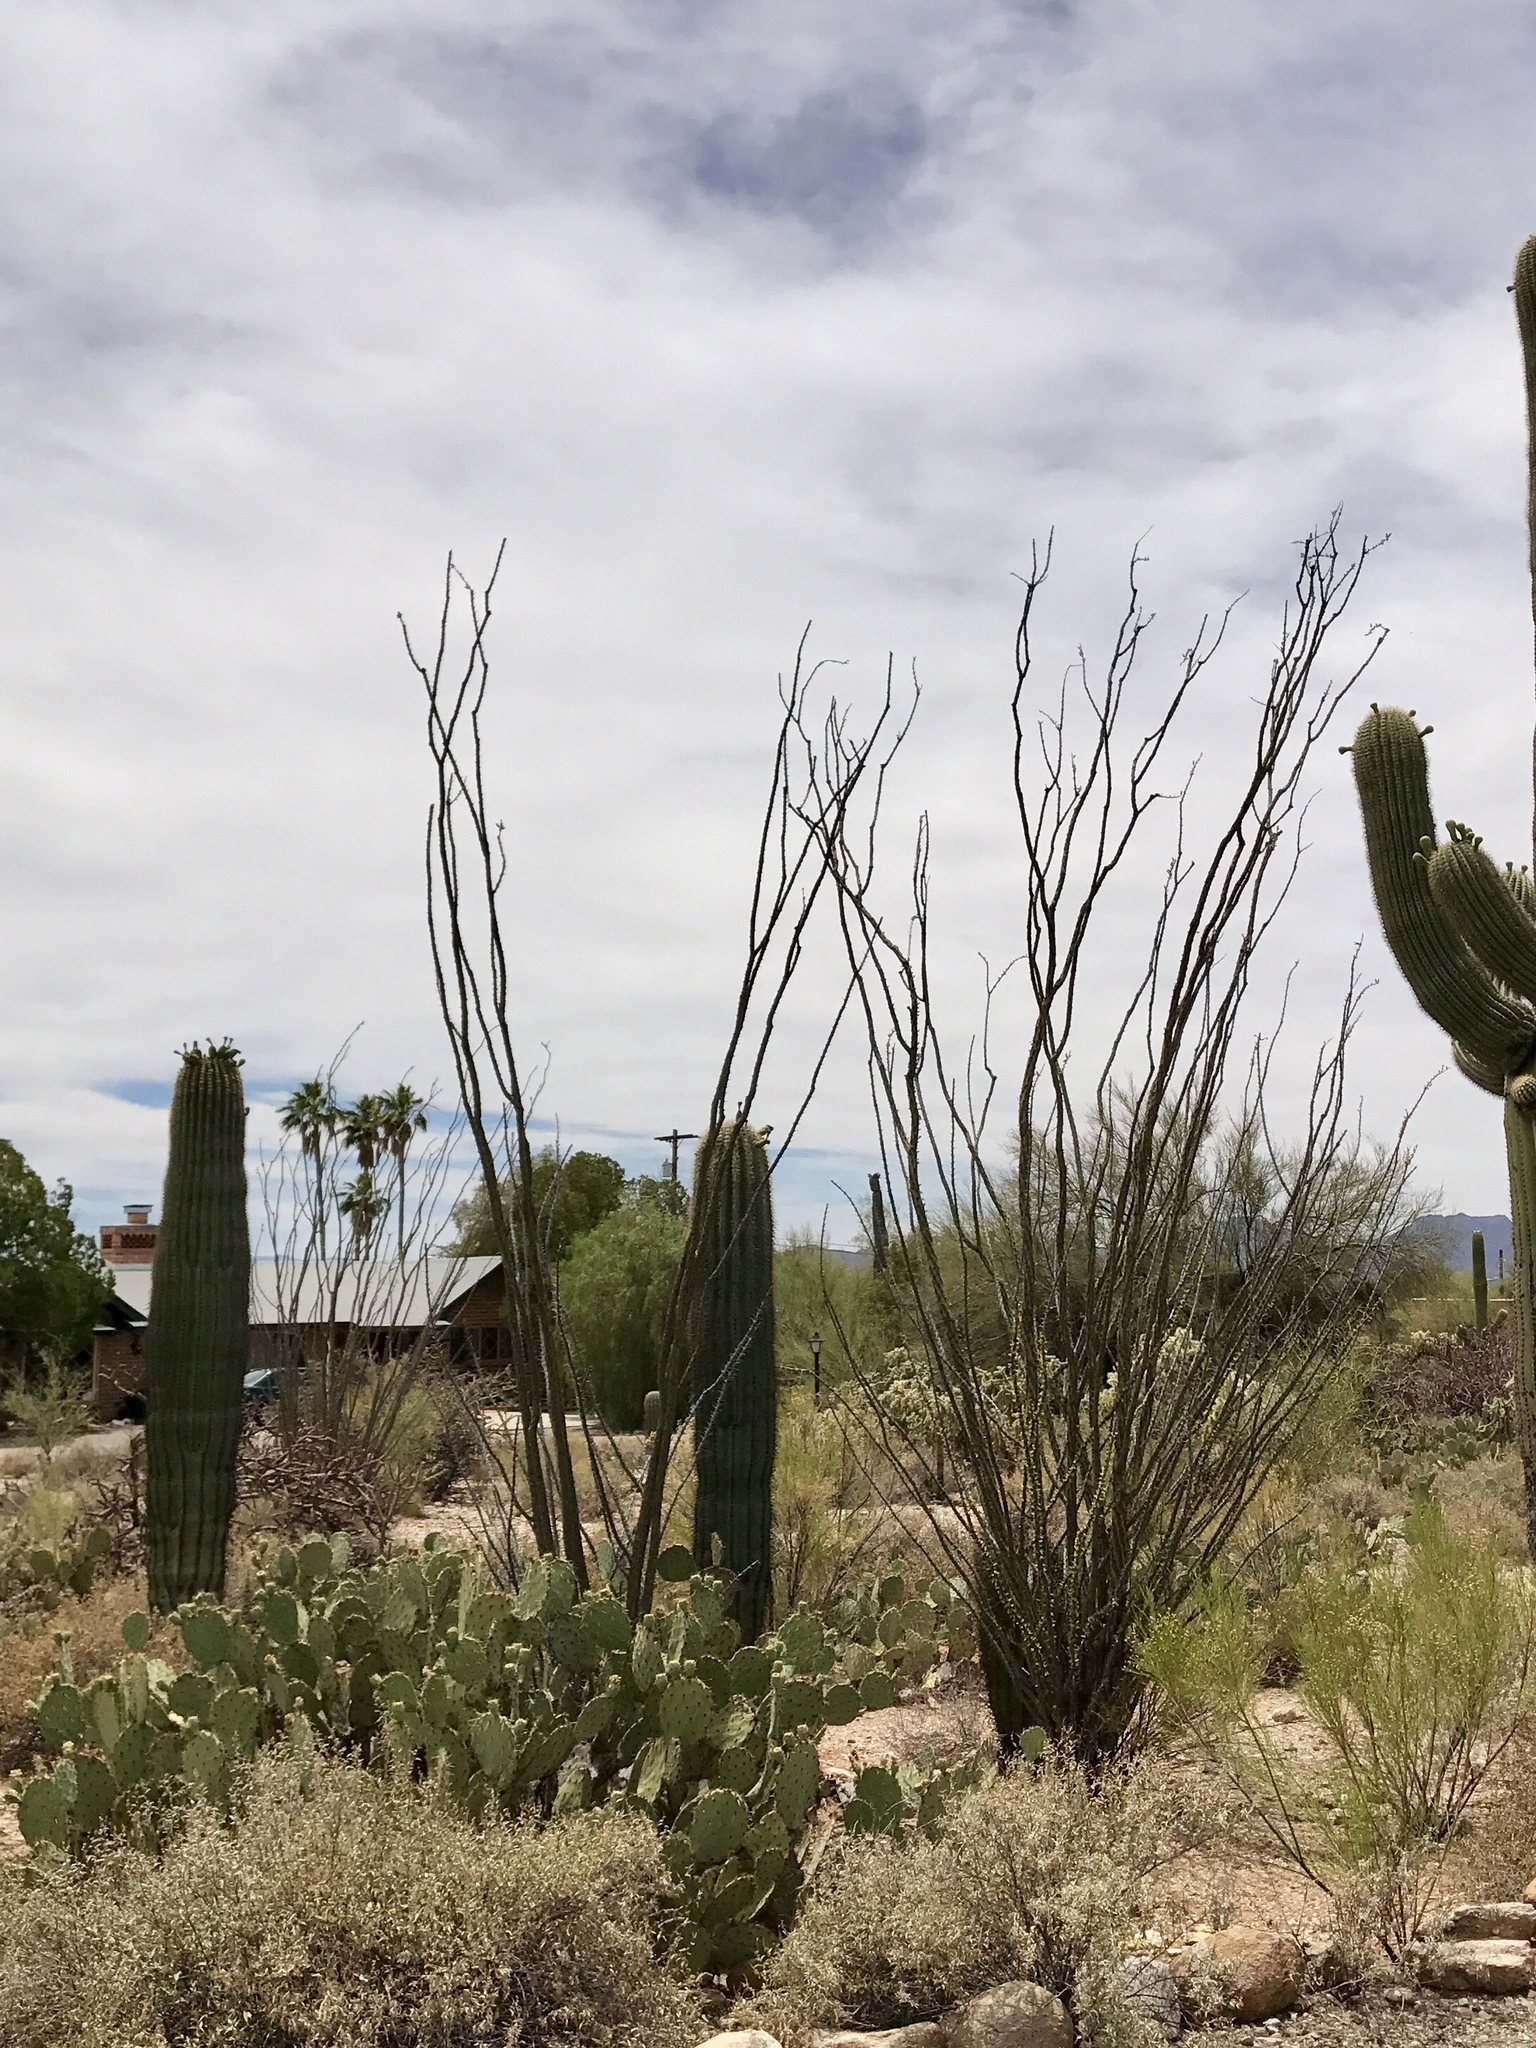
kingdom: Plantae
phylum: Tracheophyta
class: Magnoliopsida
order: Ericales
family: Fouquieriaceae
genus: Fouquieria
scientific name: Fouquieria splendens
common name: Vine-cactus
